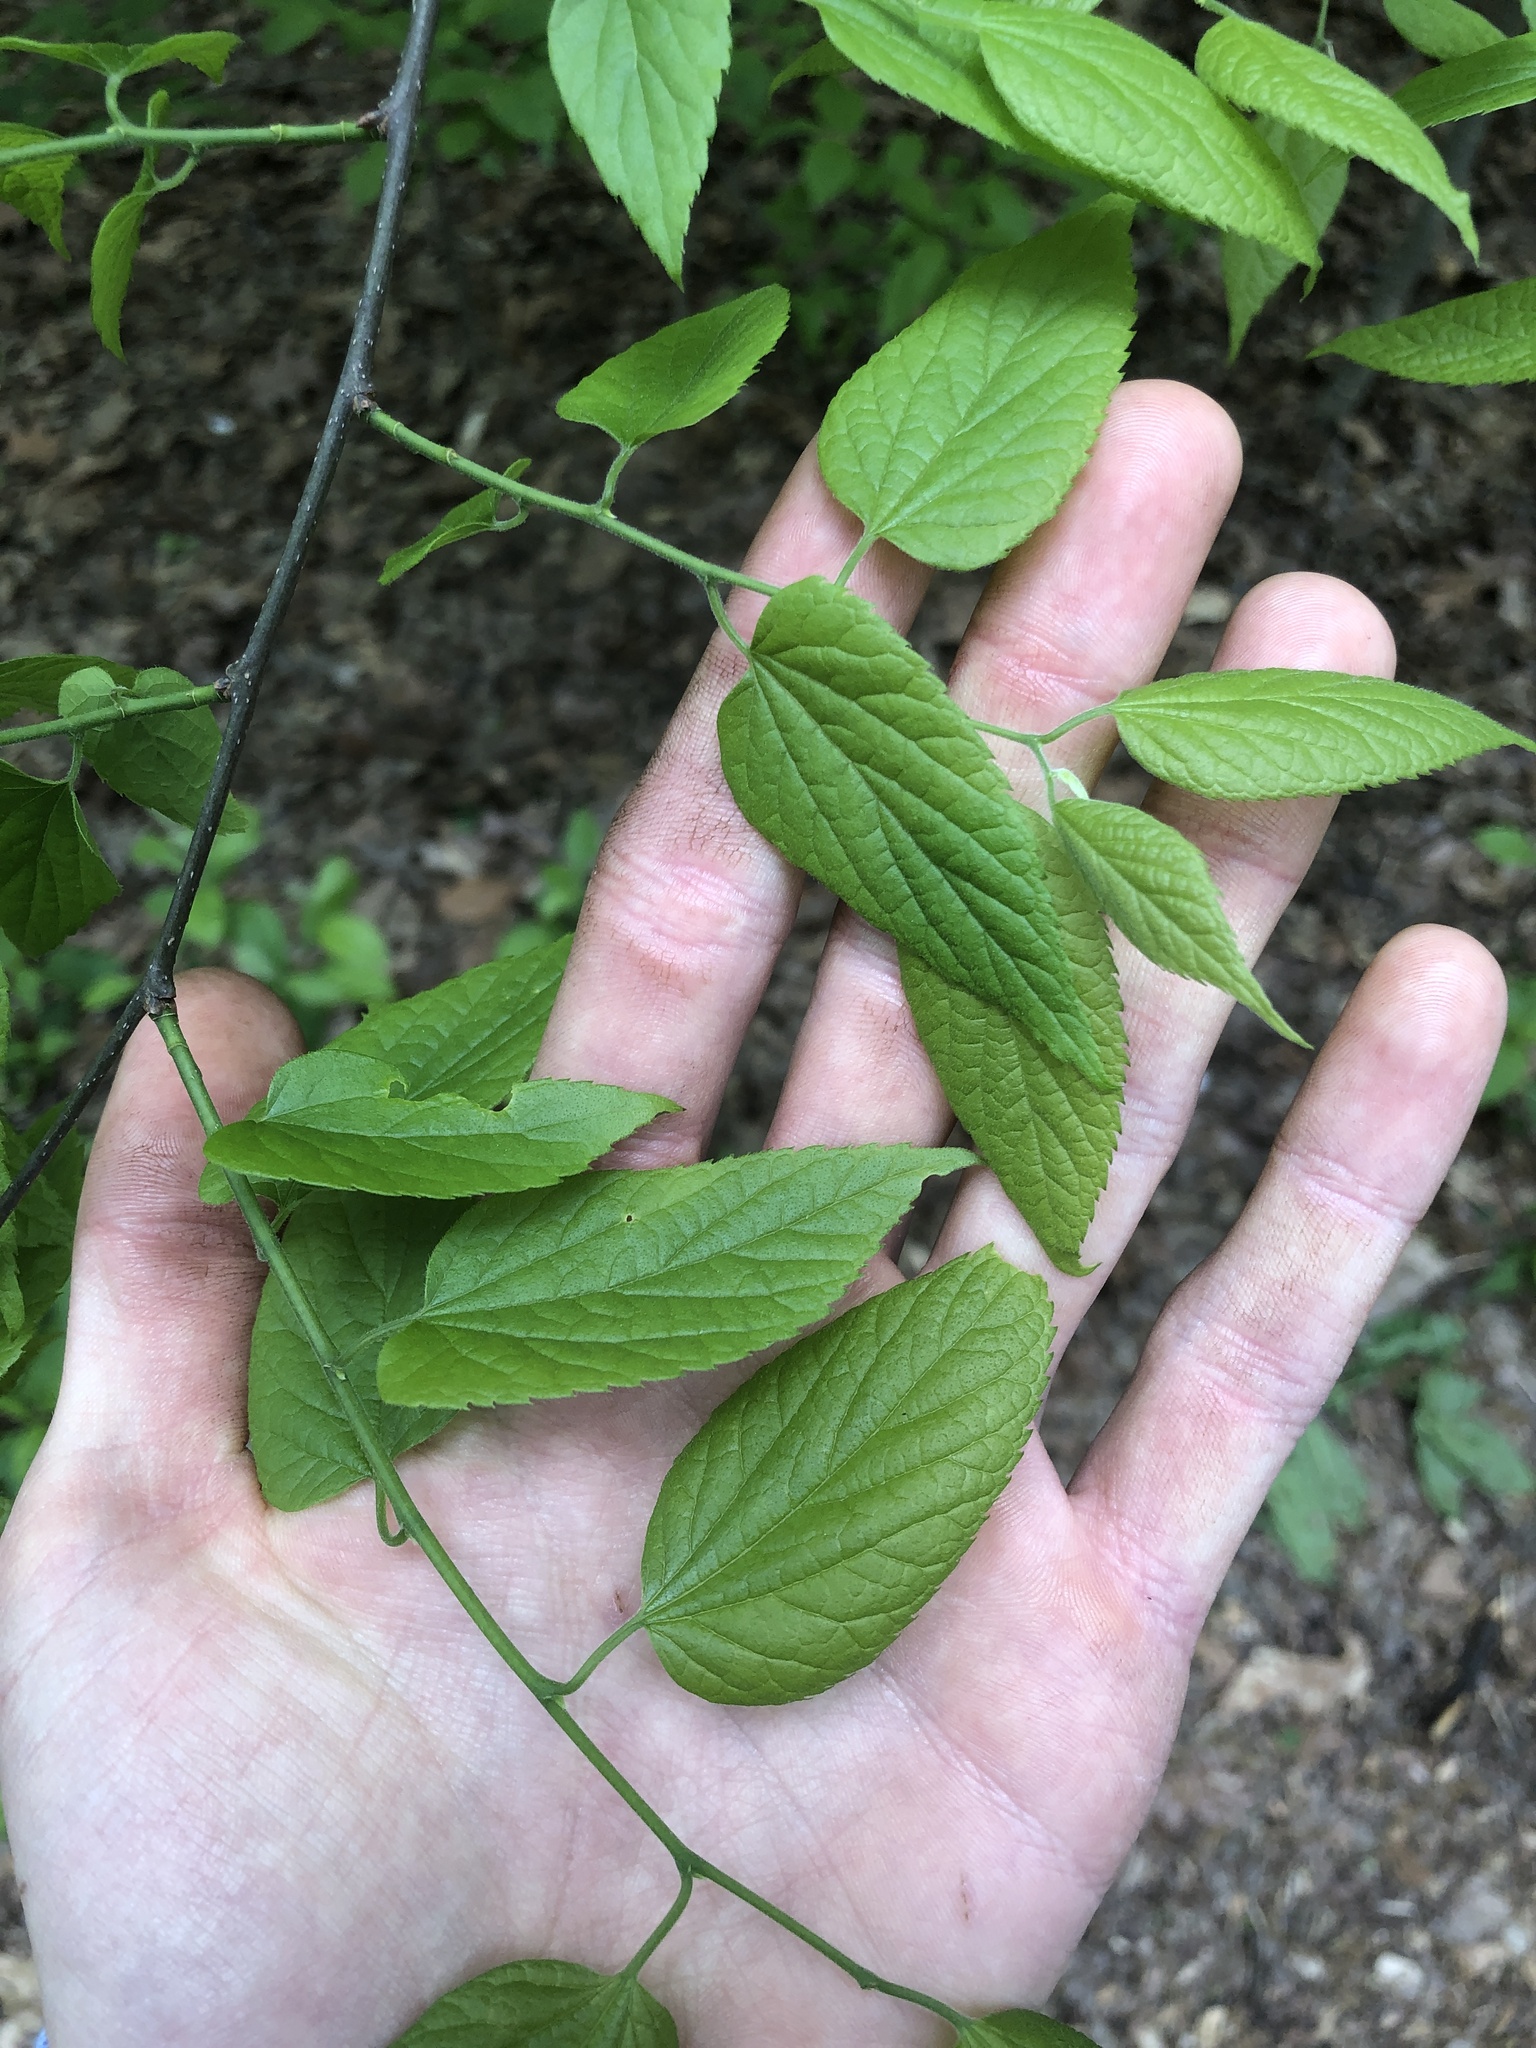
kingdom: Plantae
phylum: Tracheophyta
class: Magnoliopsida
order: Rosales
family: Cannabaceae
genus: Celtis
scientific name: Celtis occidentalis
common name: Common hackberry
